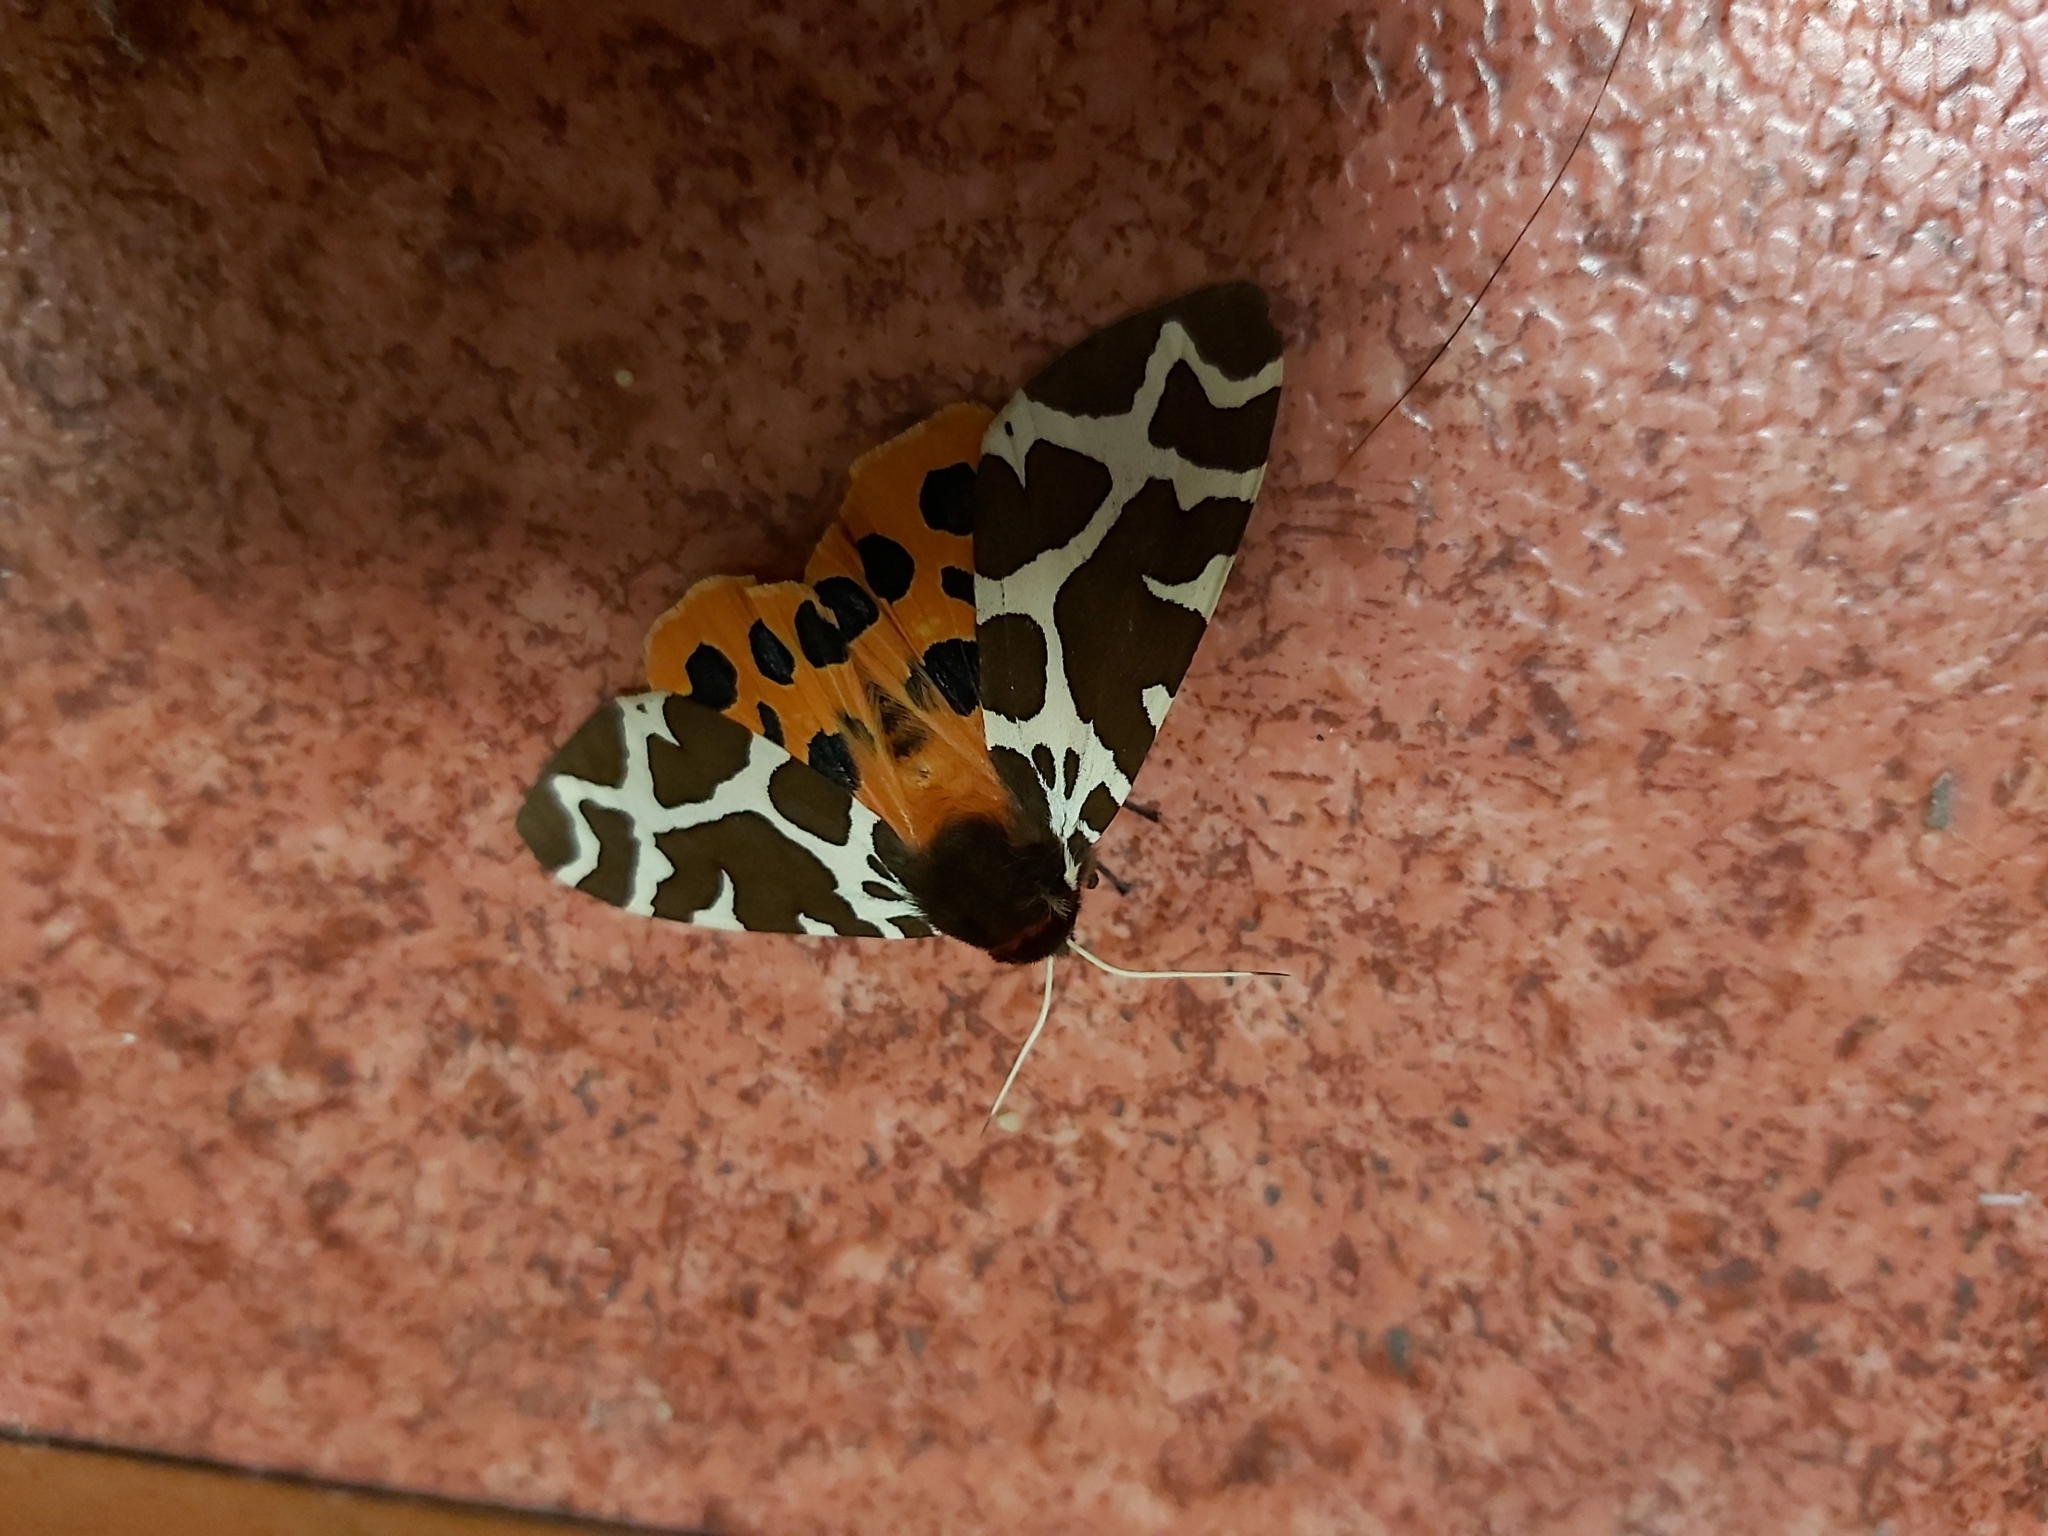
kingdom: Animalia
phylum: Arthropoda
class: Insecta
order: Lepidoptera
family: Erebidae
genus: Arctia
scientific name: Arctia caja
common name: Garden tiger
